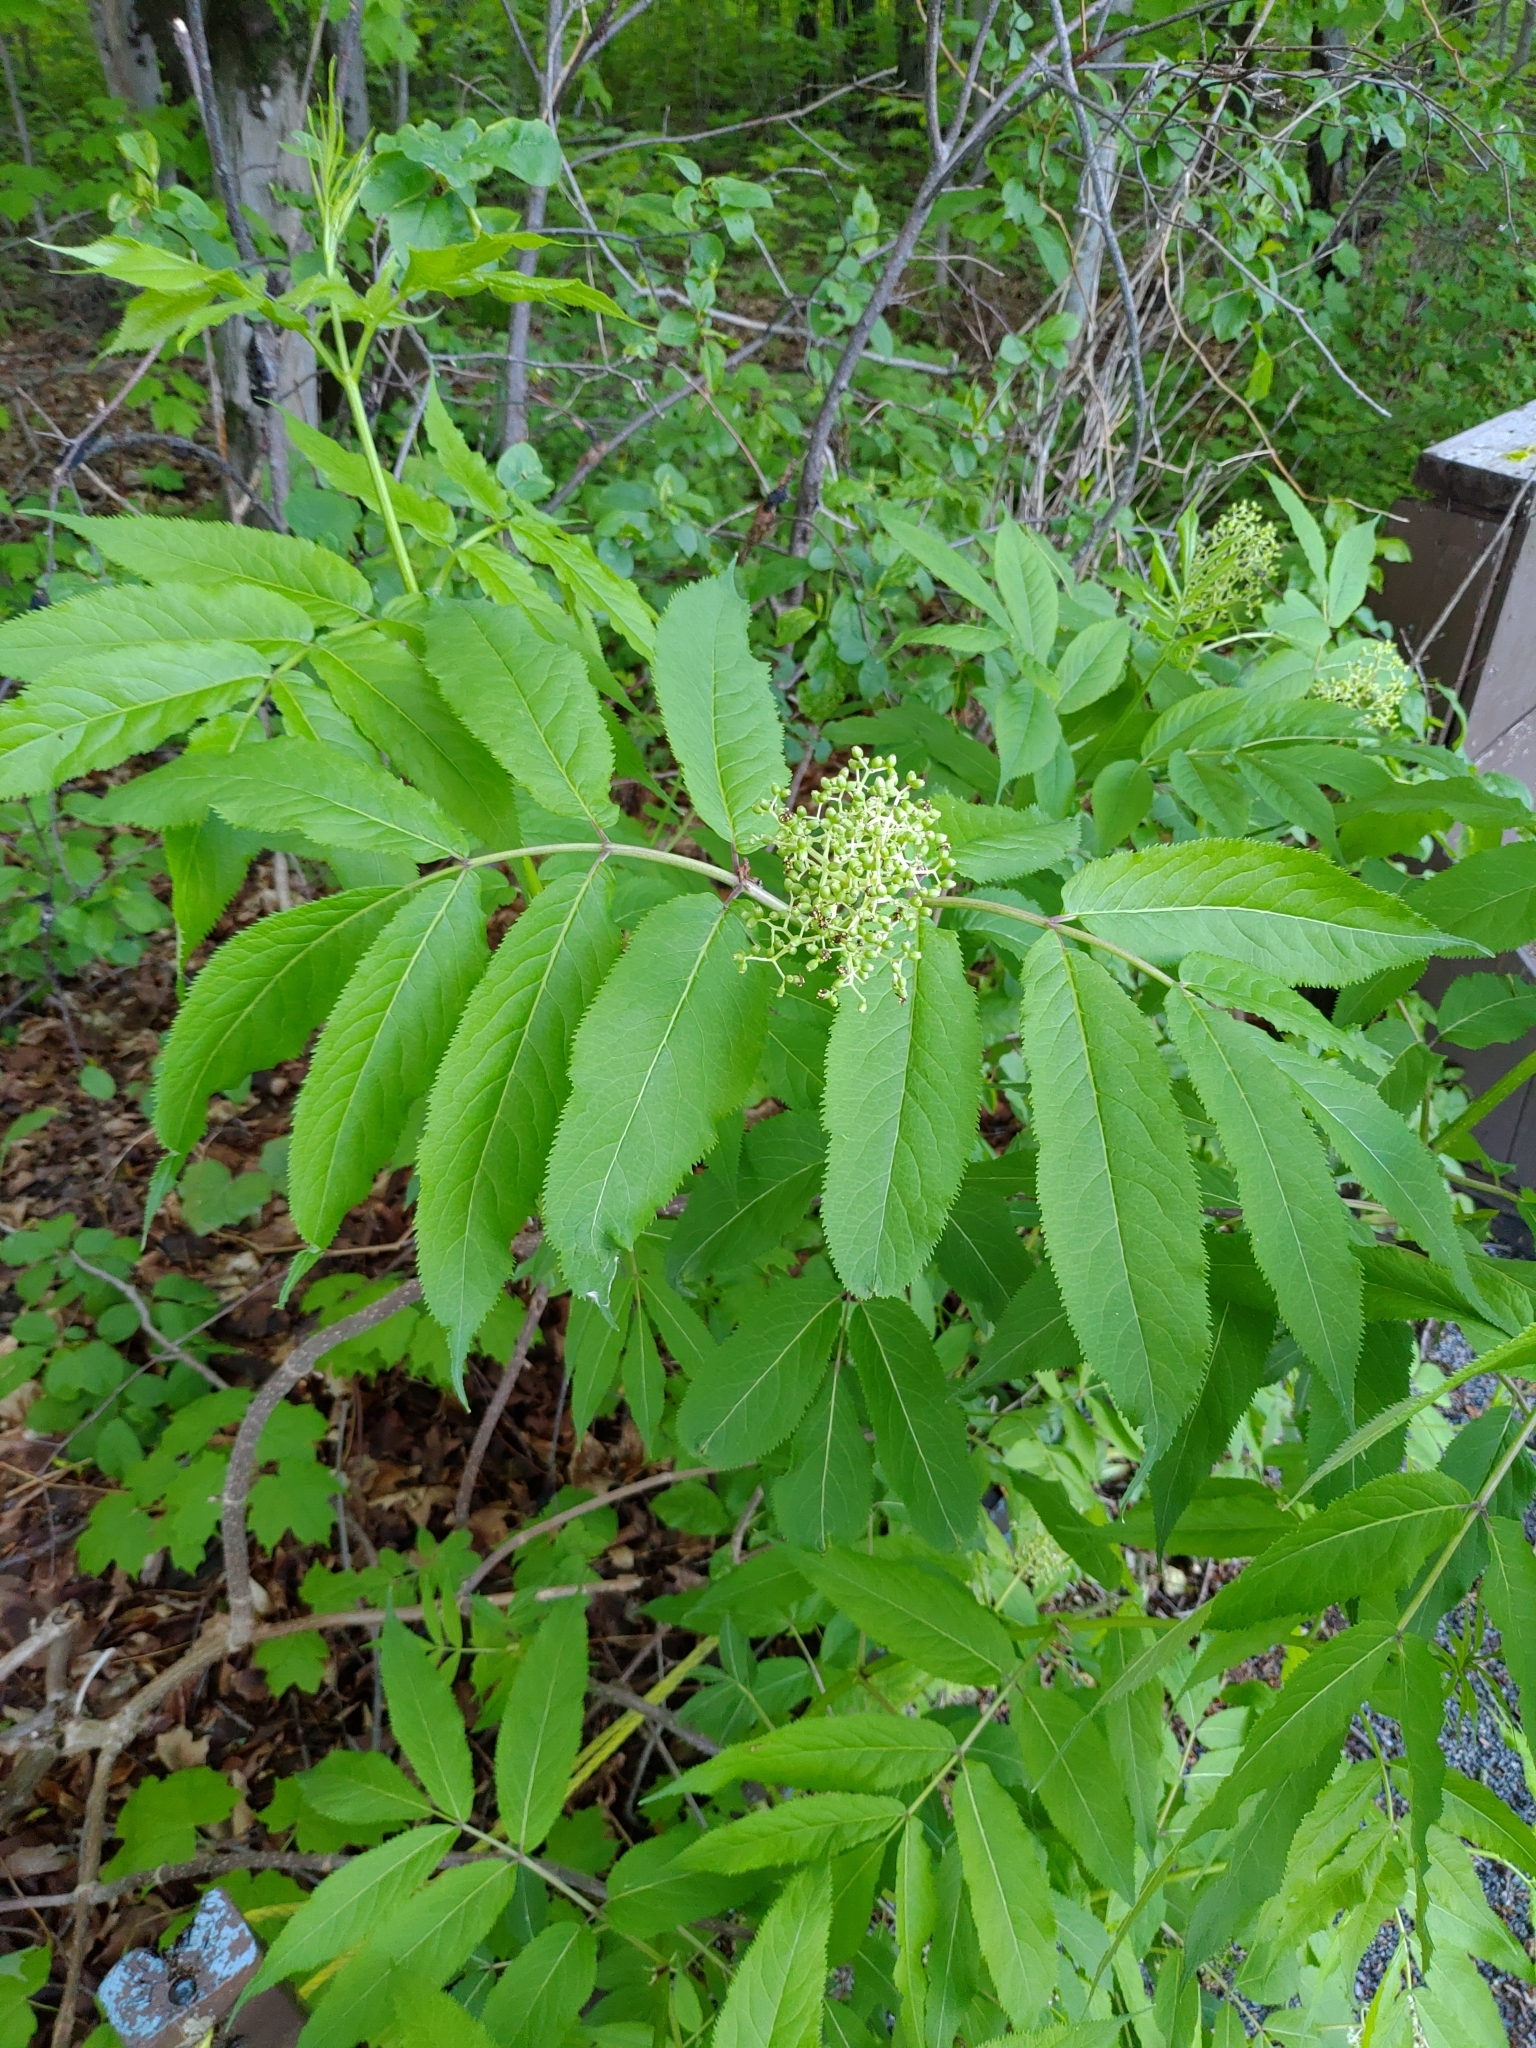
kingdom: Plantae
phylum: Tracheophyta
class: Magnoliopsida
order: Dipsacales
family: Viburnaceae
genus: Sambucus
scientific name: Sambucus racemosa
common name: Red-berried elder
